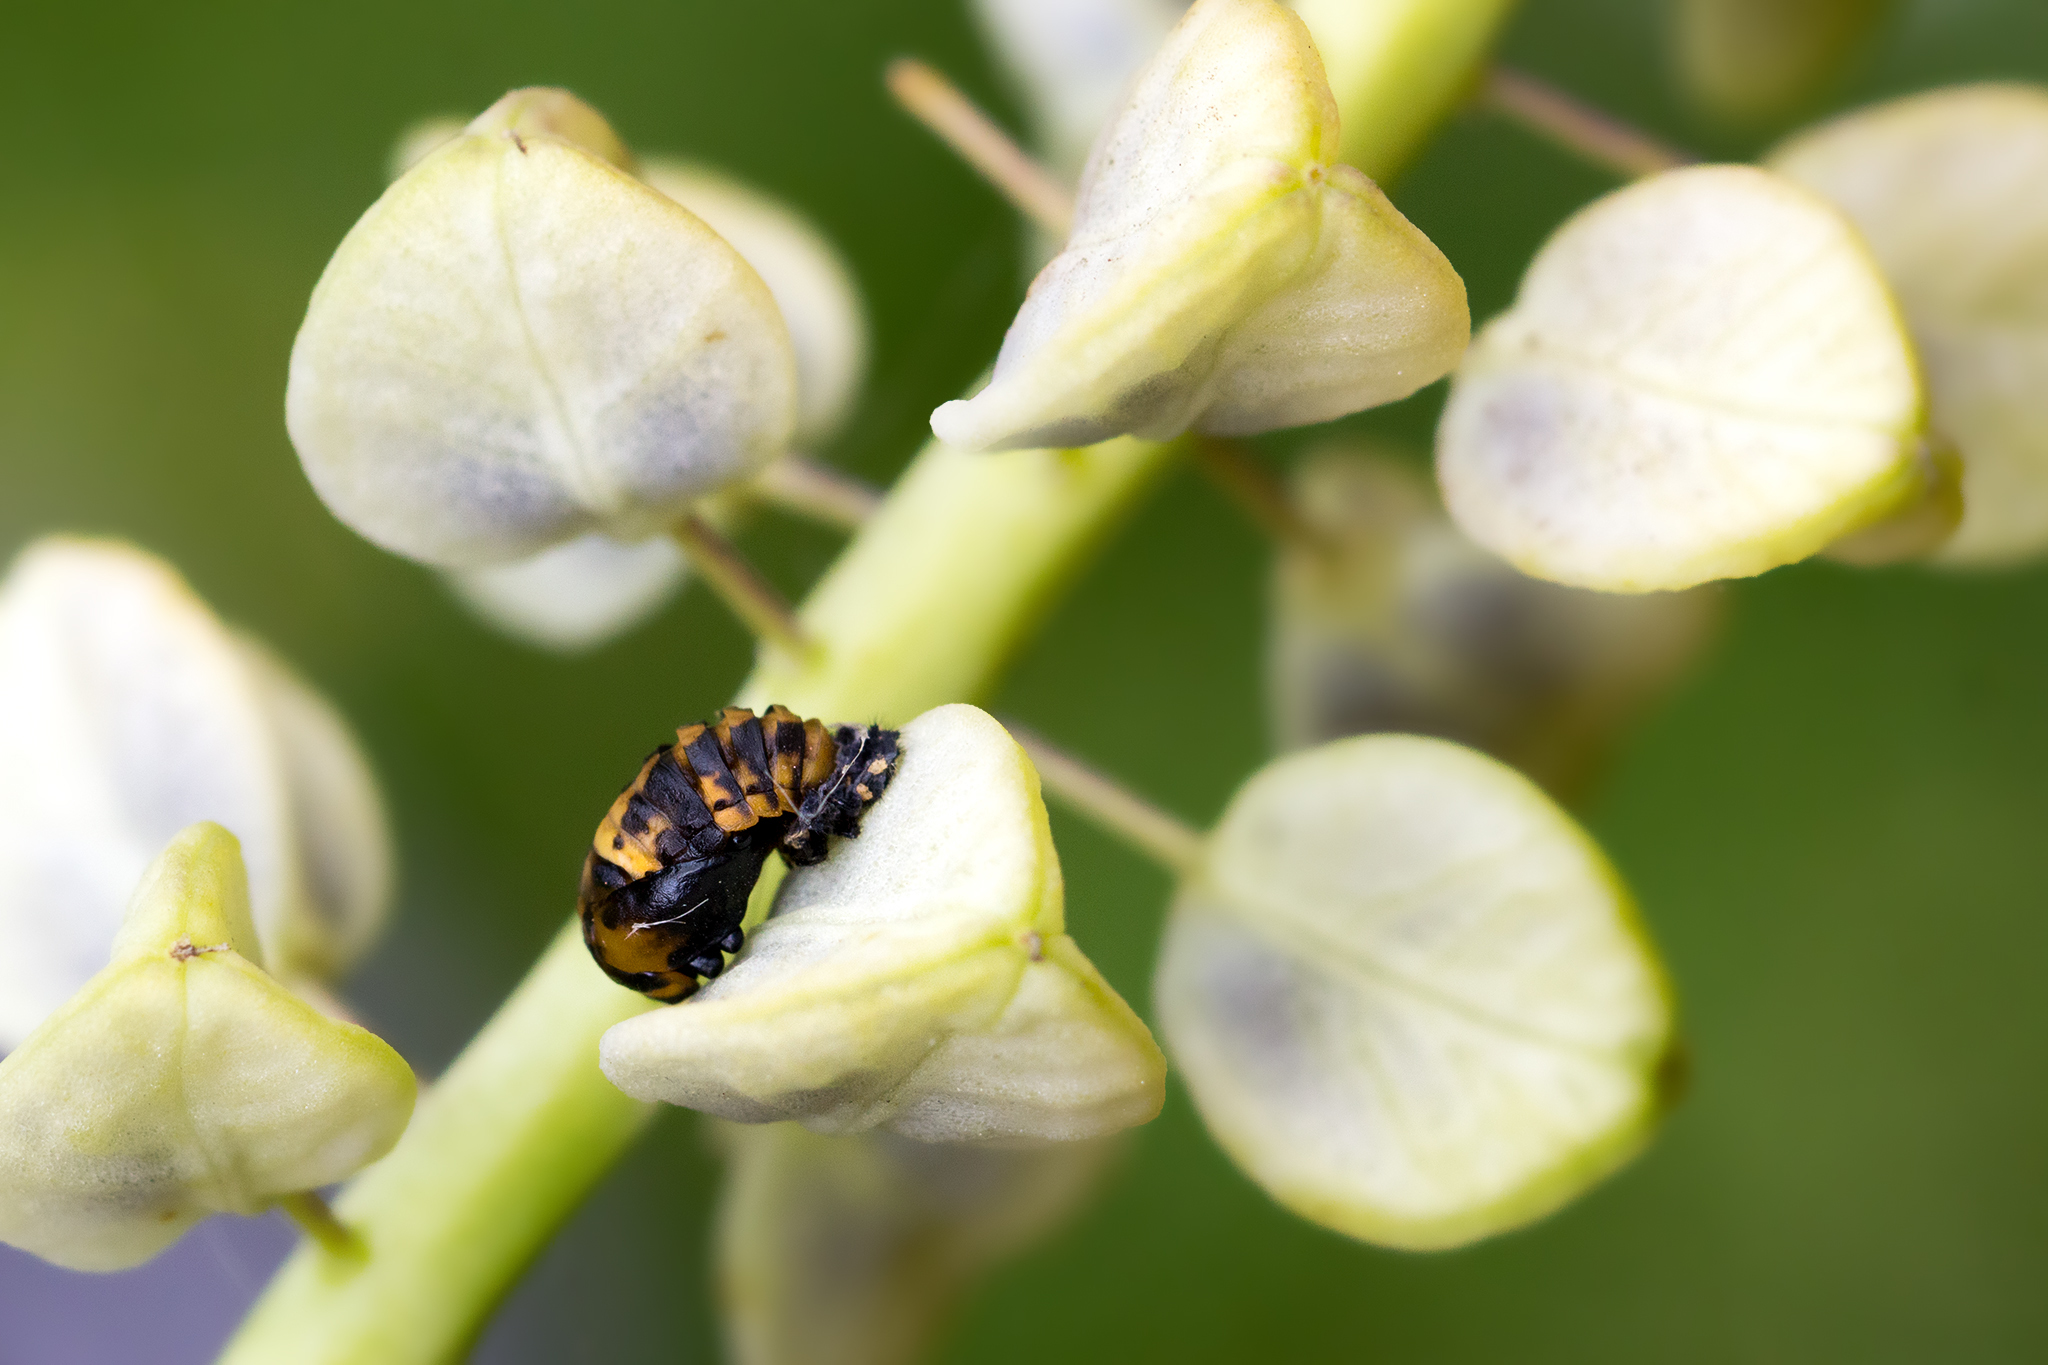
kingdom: Animalia
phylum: Arthropoda
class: Insecta
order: Coleoptera
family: Coccinellidae
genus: Coccinella
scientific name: Coccinella septempunctata
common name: Sevenspotted lady beetle
